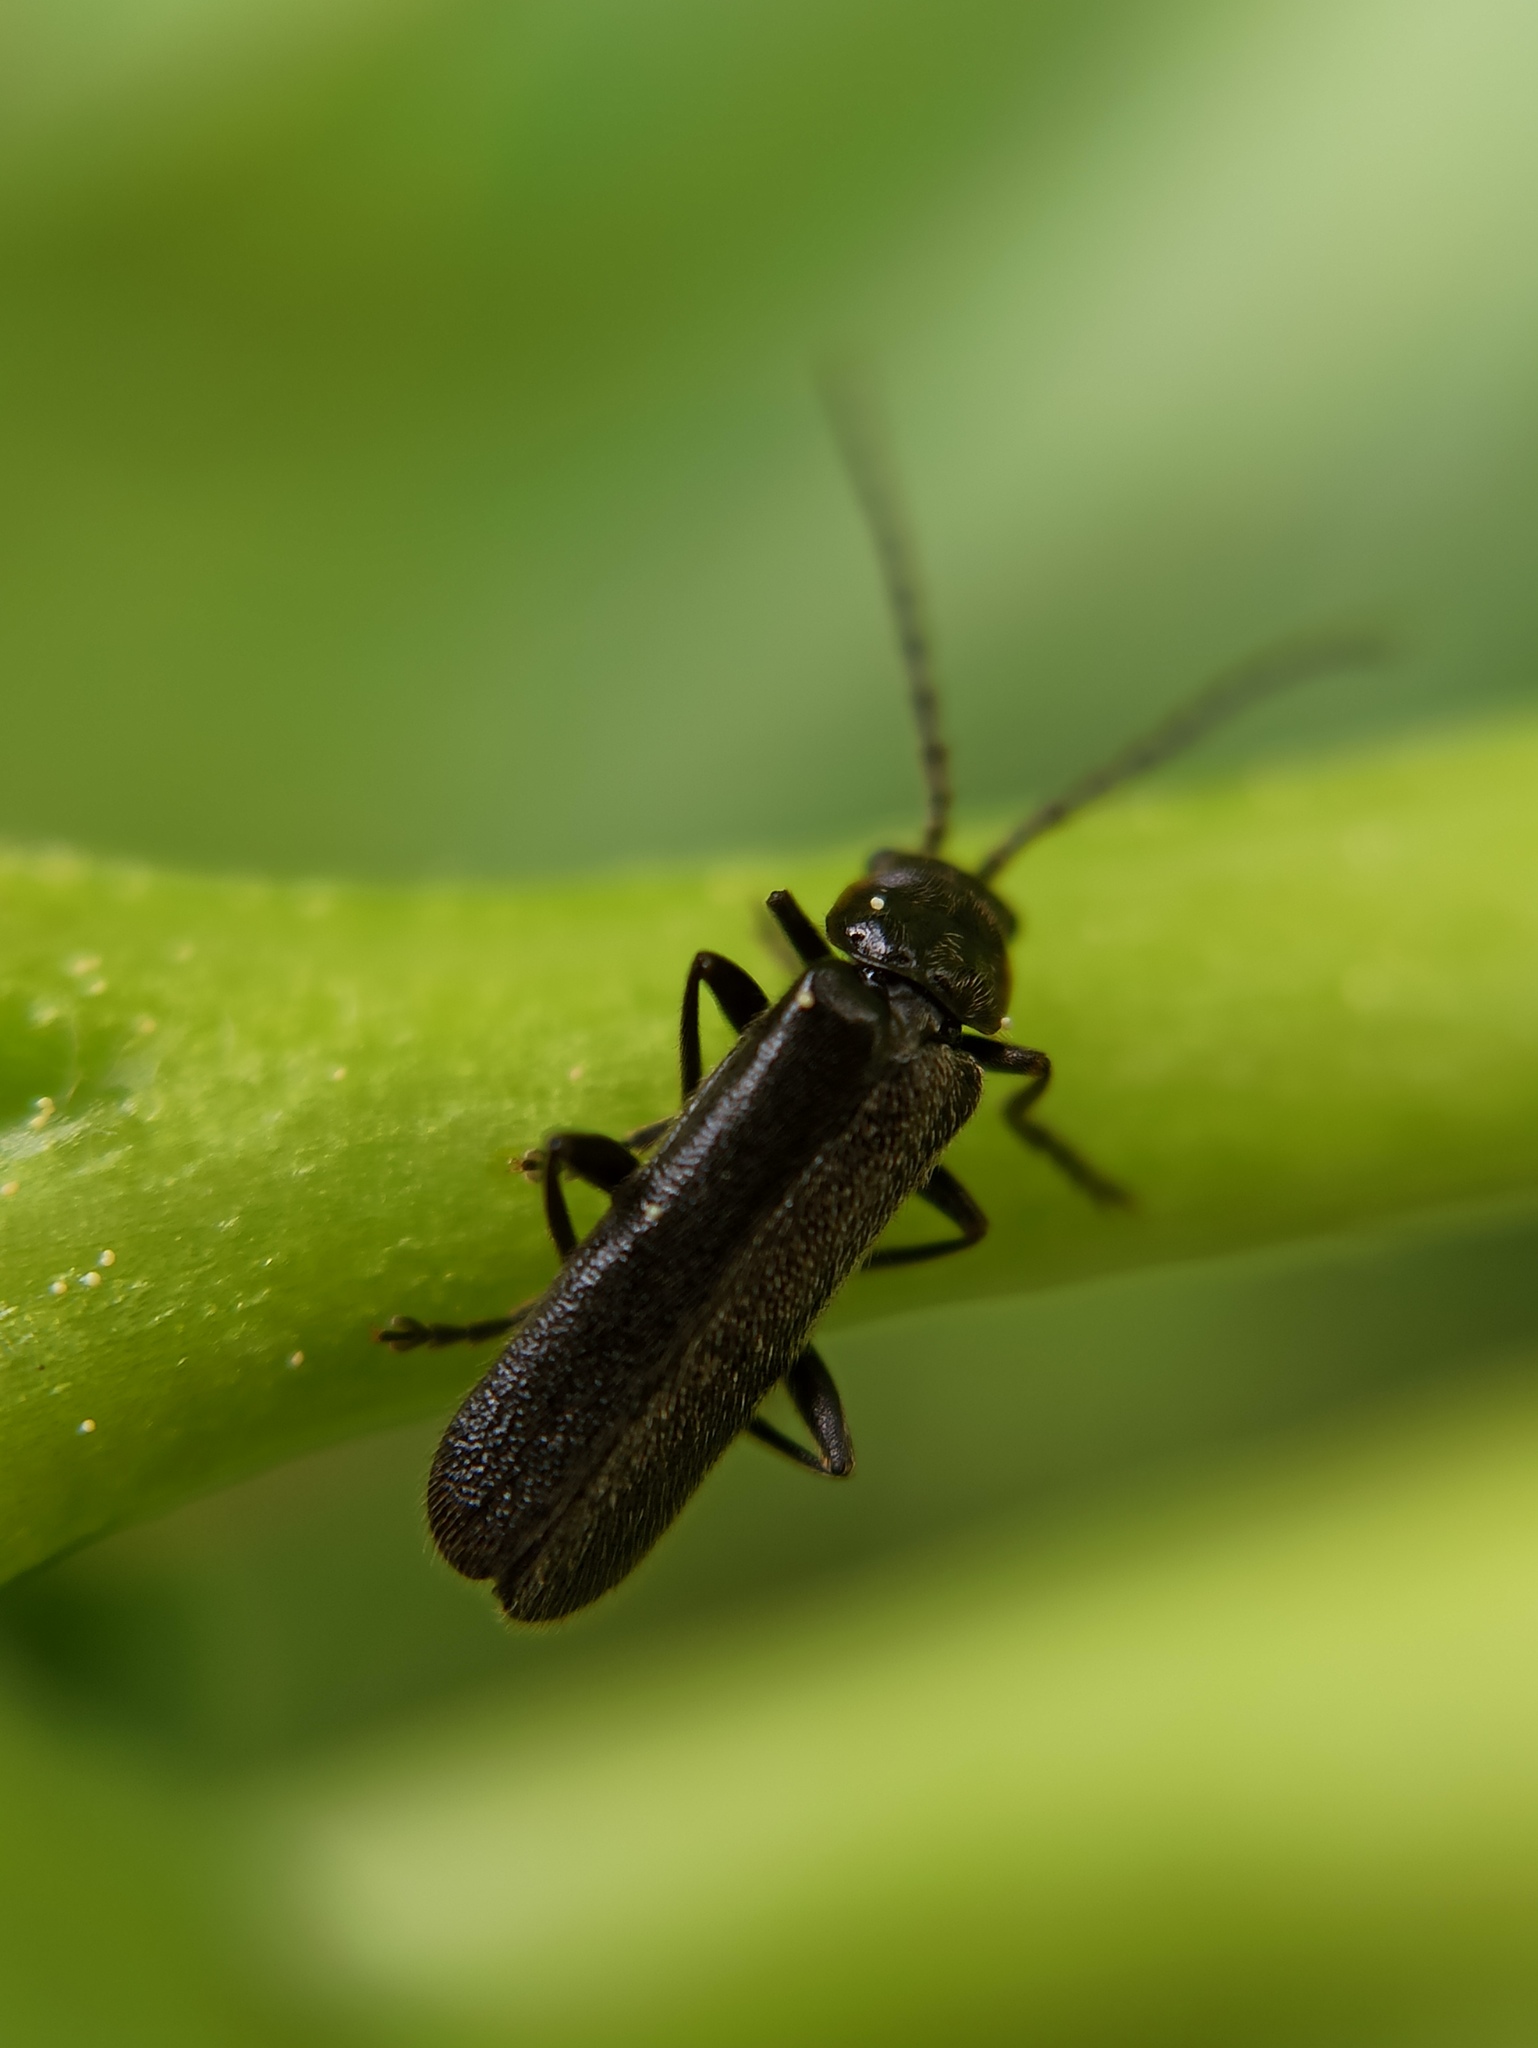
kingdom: Animalia
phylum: Arthropoda
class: Insecta
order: Coleoptera
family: Cantharidae
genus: Cantharis
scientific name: Cantharis paludosa
